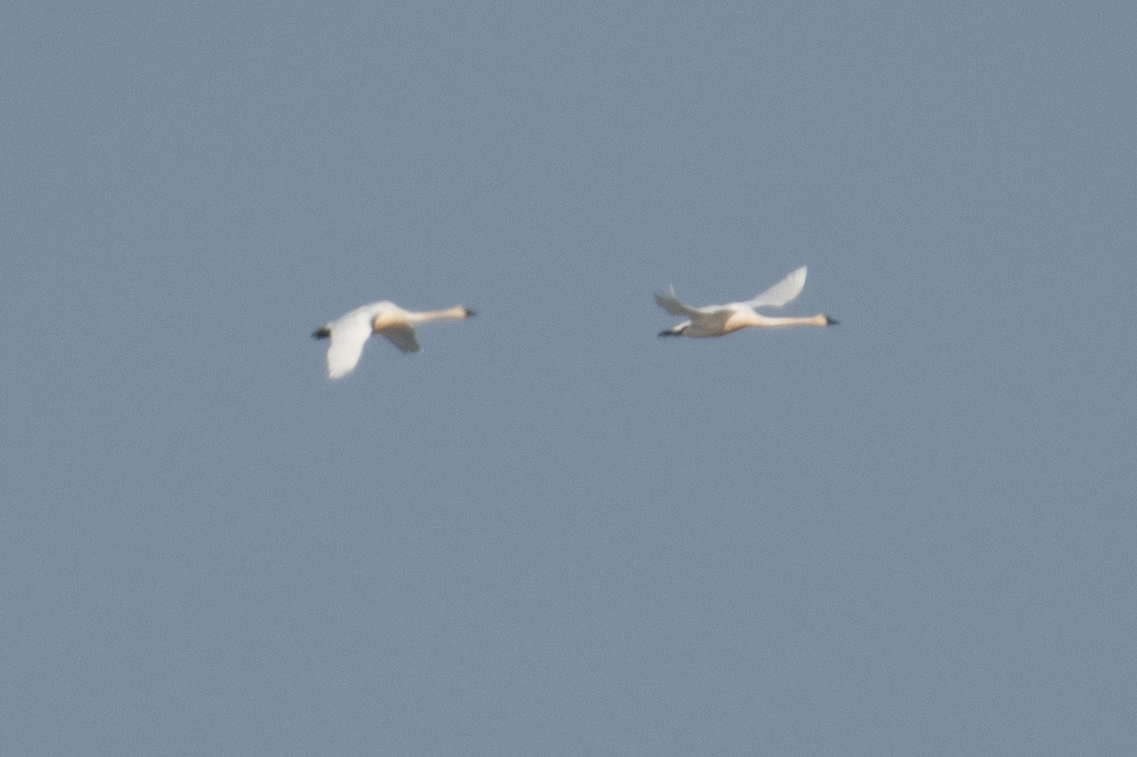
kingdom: Animalia
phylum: Chordata
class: Aves
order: Anseriformes
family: Anatidae
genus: Cygnus
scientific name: Cygnus columbianus
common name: Tundra swan
